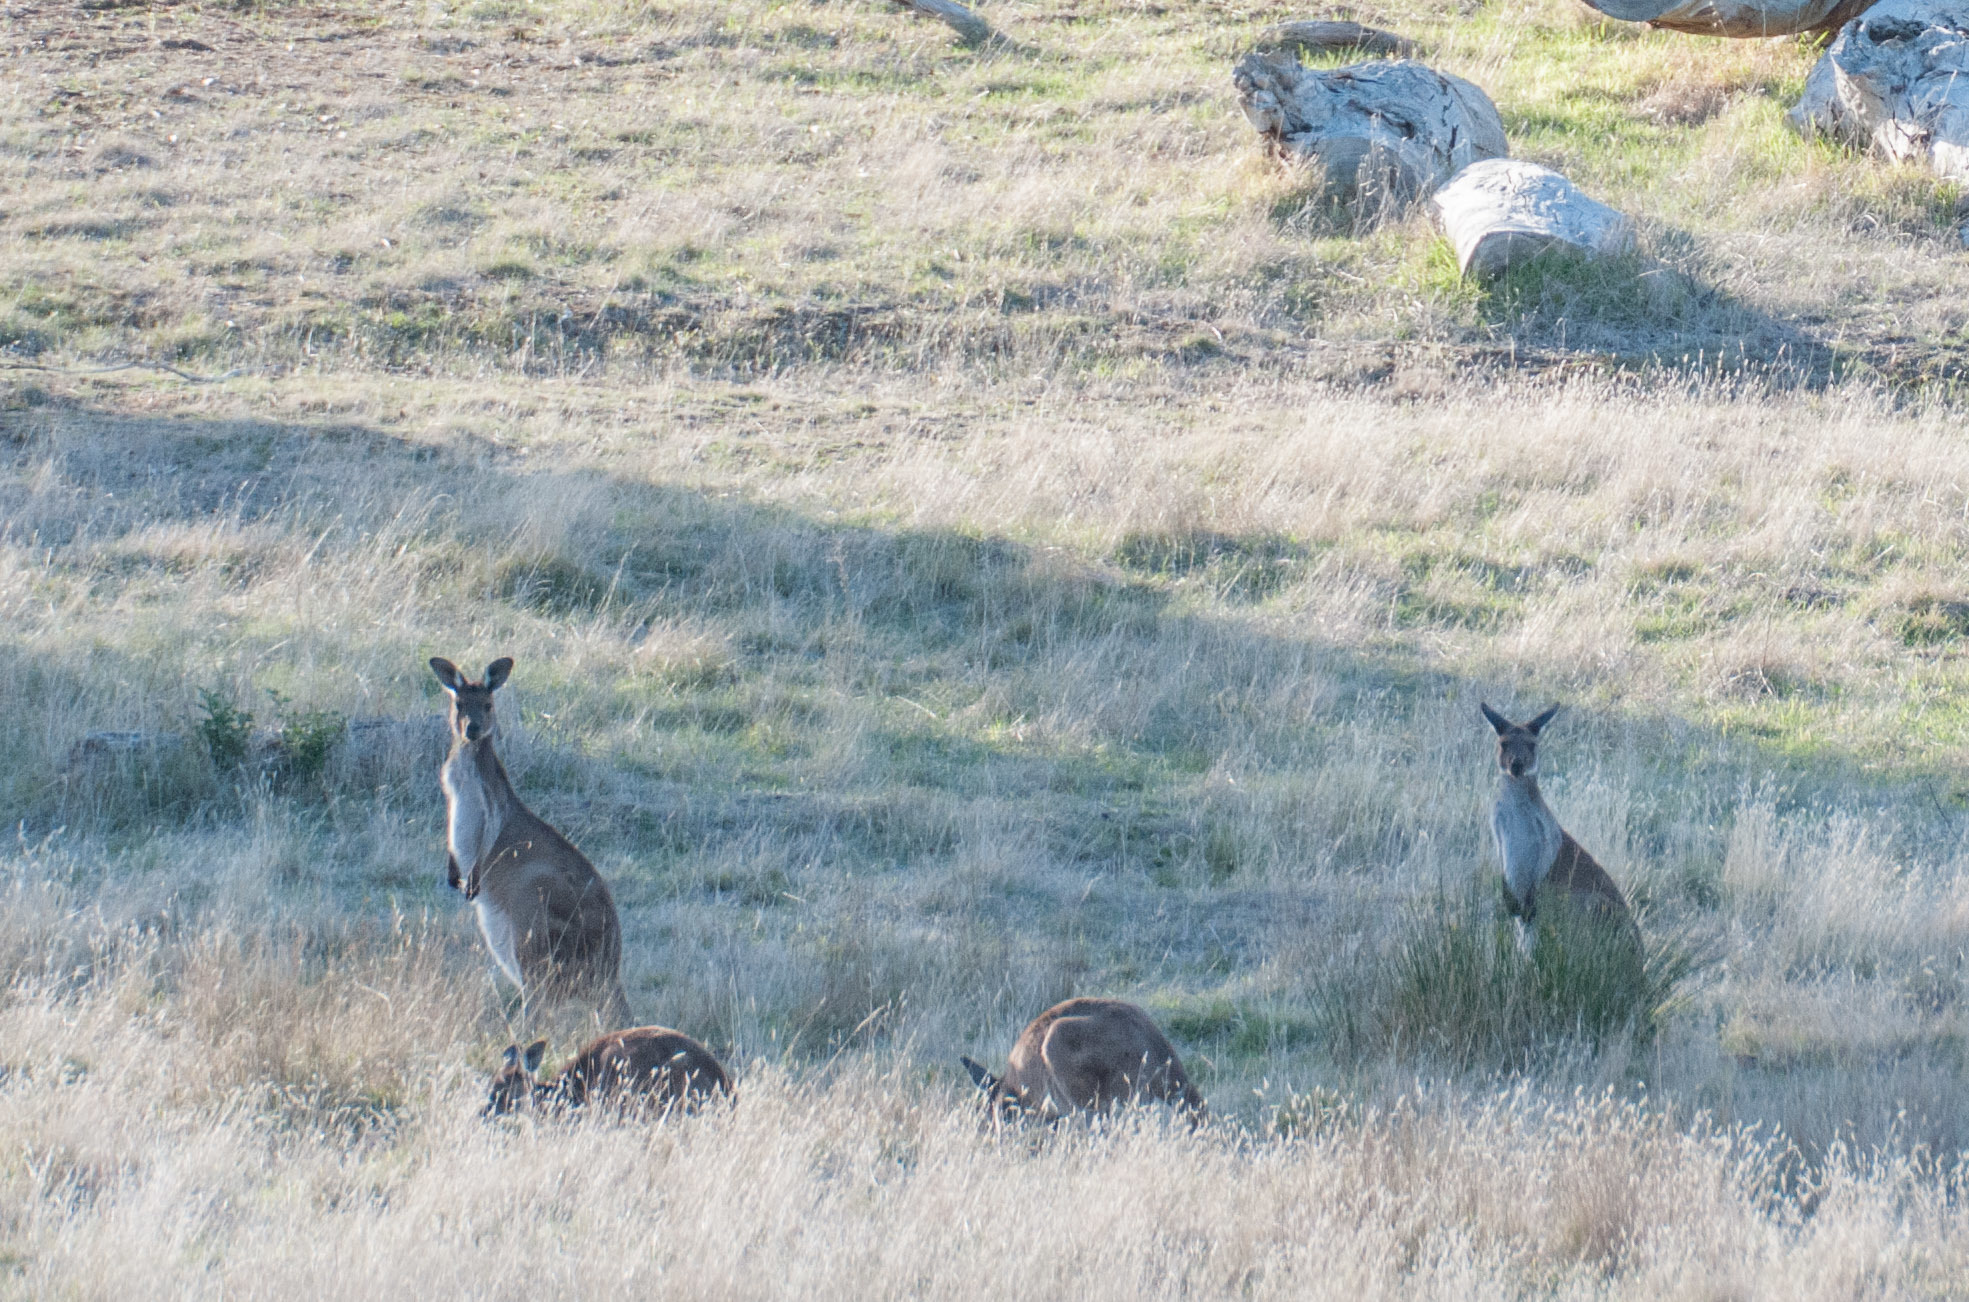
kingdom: Animalia
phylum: Chordata
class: Mammalia
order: Diprotodontia
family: Macropodidae
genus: Macropus
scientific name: Macropus fuliginosus
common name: Western grey kangaroo
